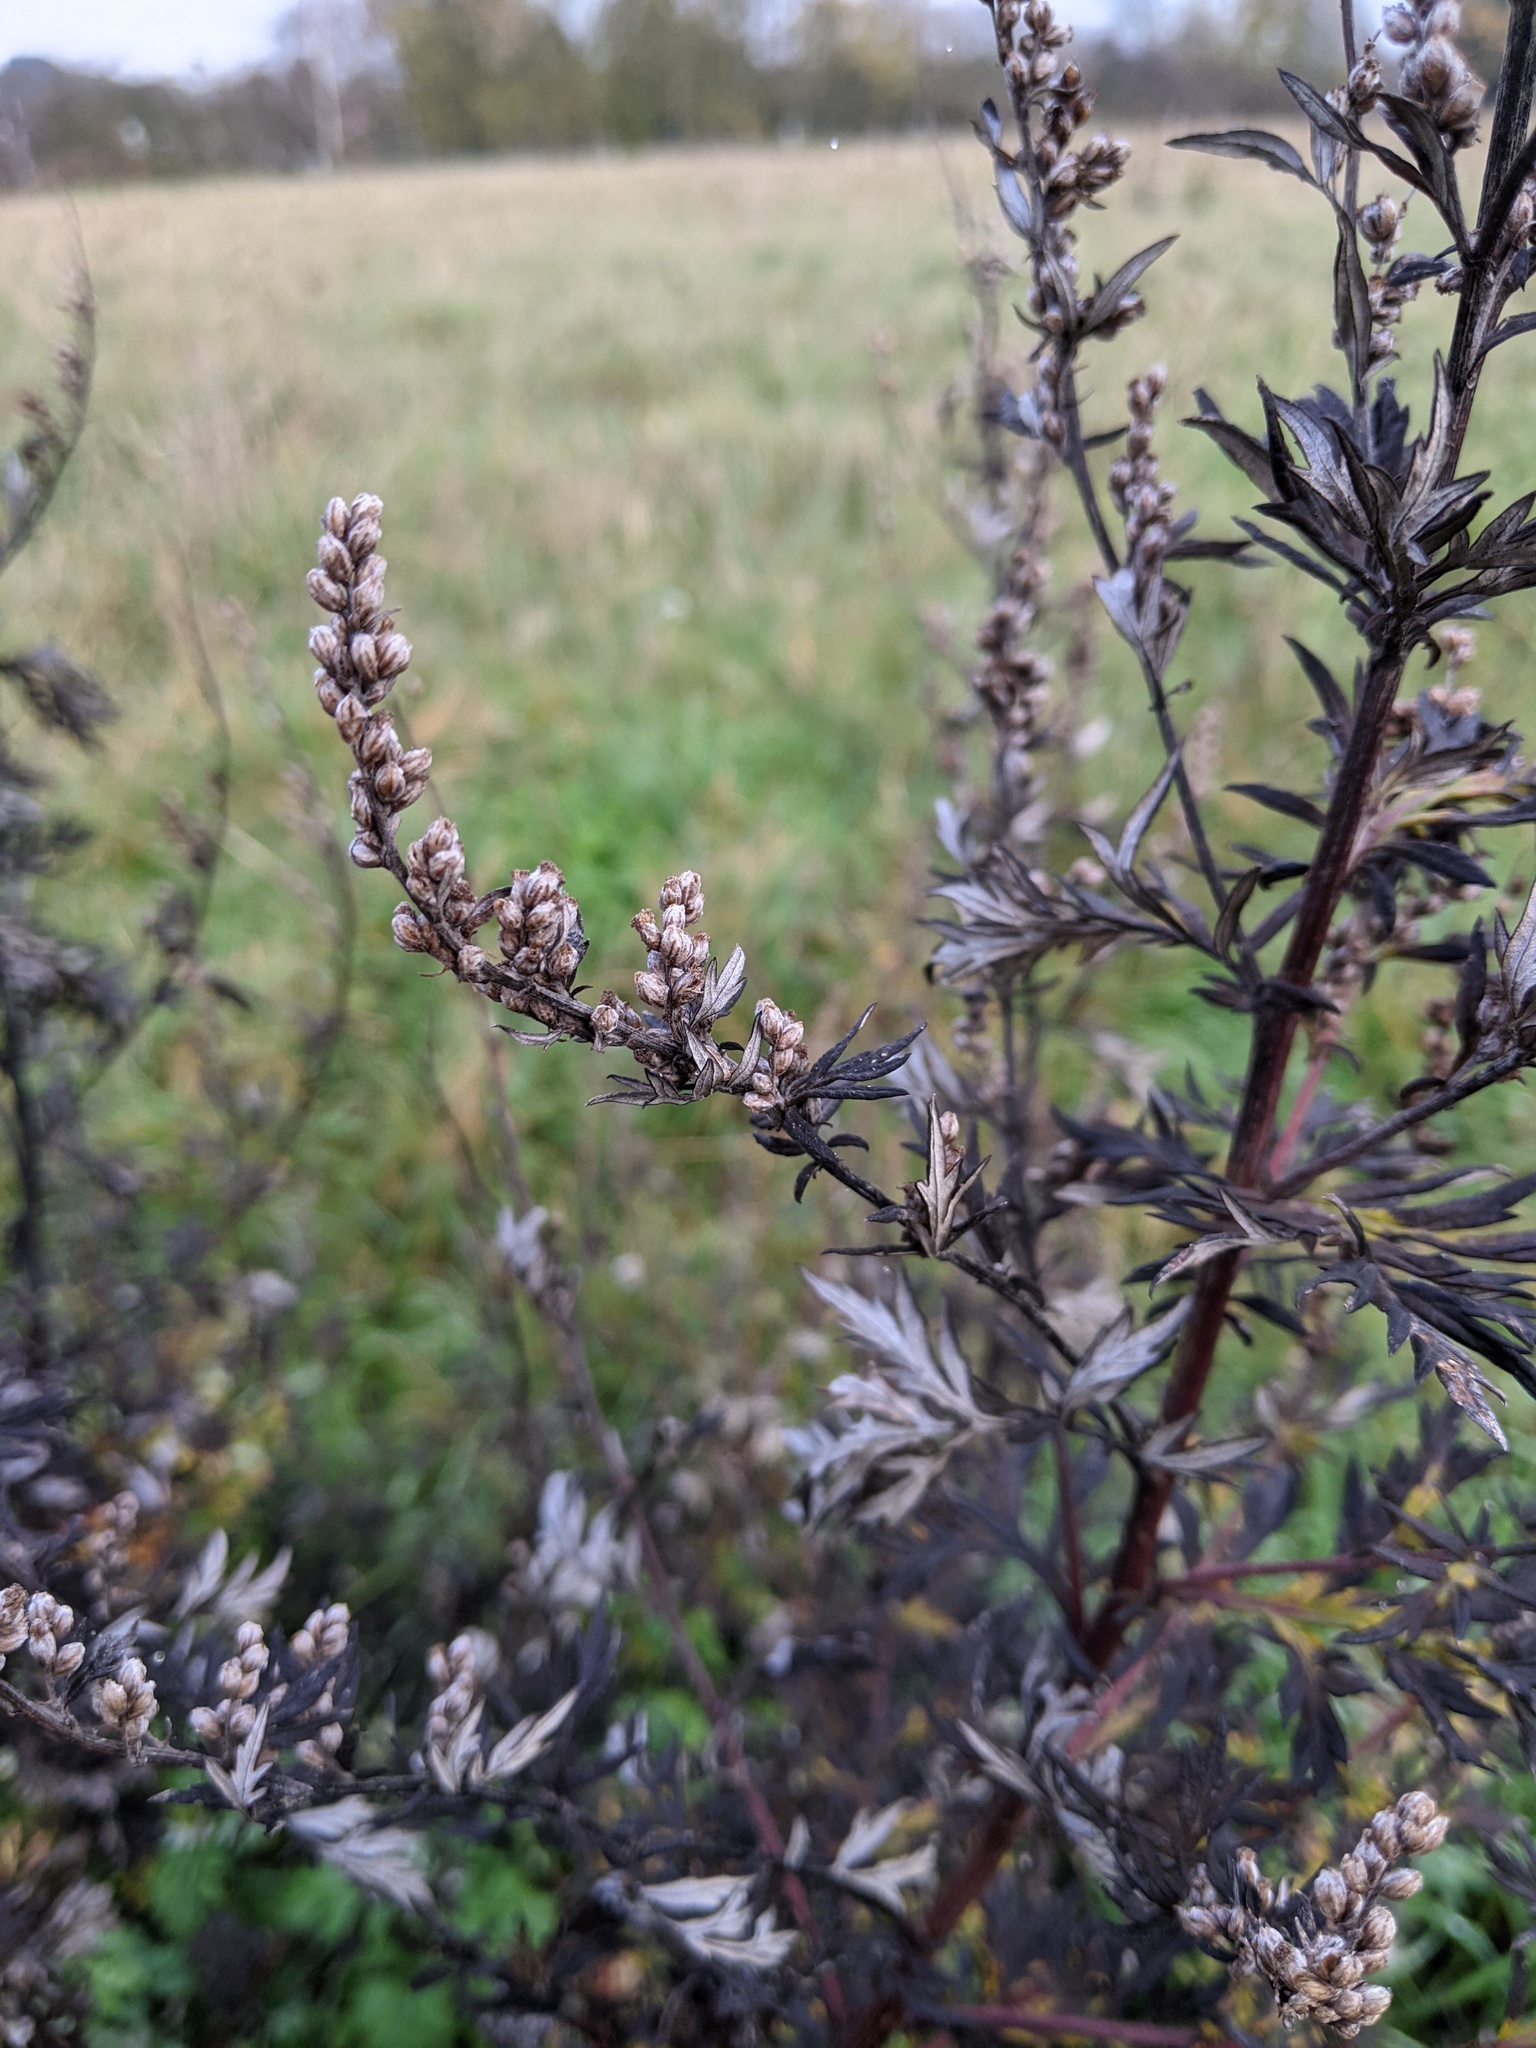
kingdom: Plantae
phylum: Tracheophyta
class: Magnoliopsida
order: Asterales
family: Asteraceae
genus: Artemisia
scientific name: Artemisia vulgaris
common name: Mugwort
